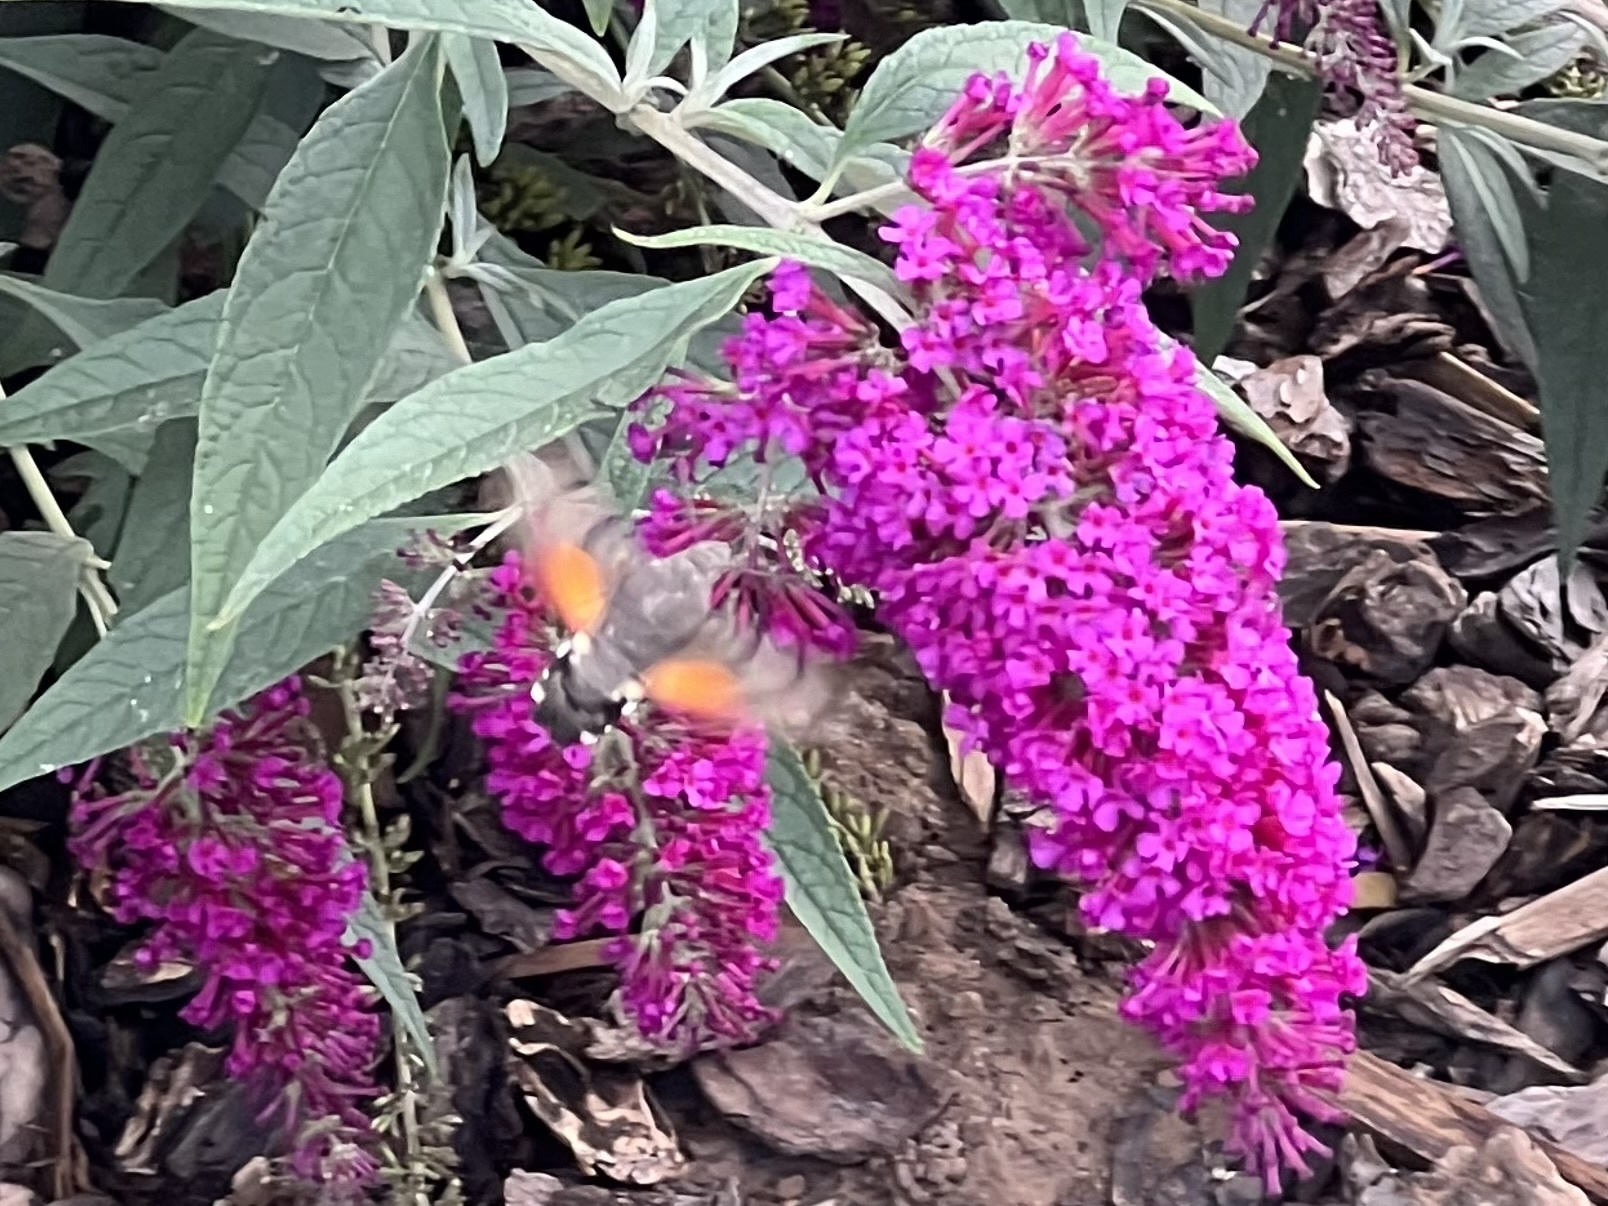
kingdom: Animalia
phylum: Arthropoda
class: Insecta
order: Lepidoptera
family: Sphingidae
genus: Macroglossum
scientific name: Macroglossum stellatarum
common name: Humming-bird hawk-moth
